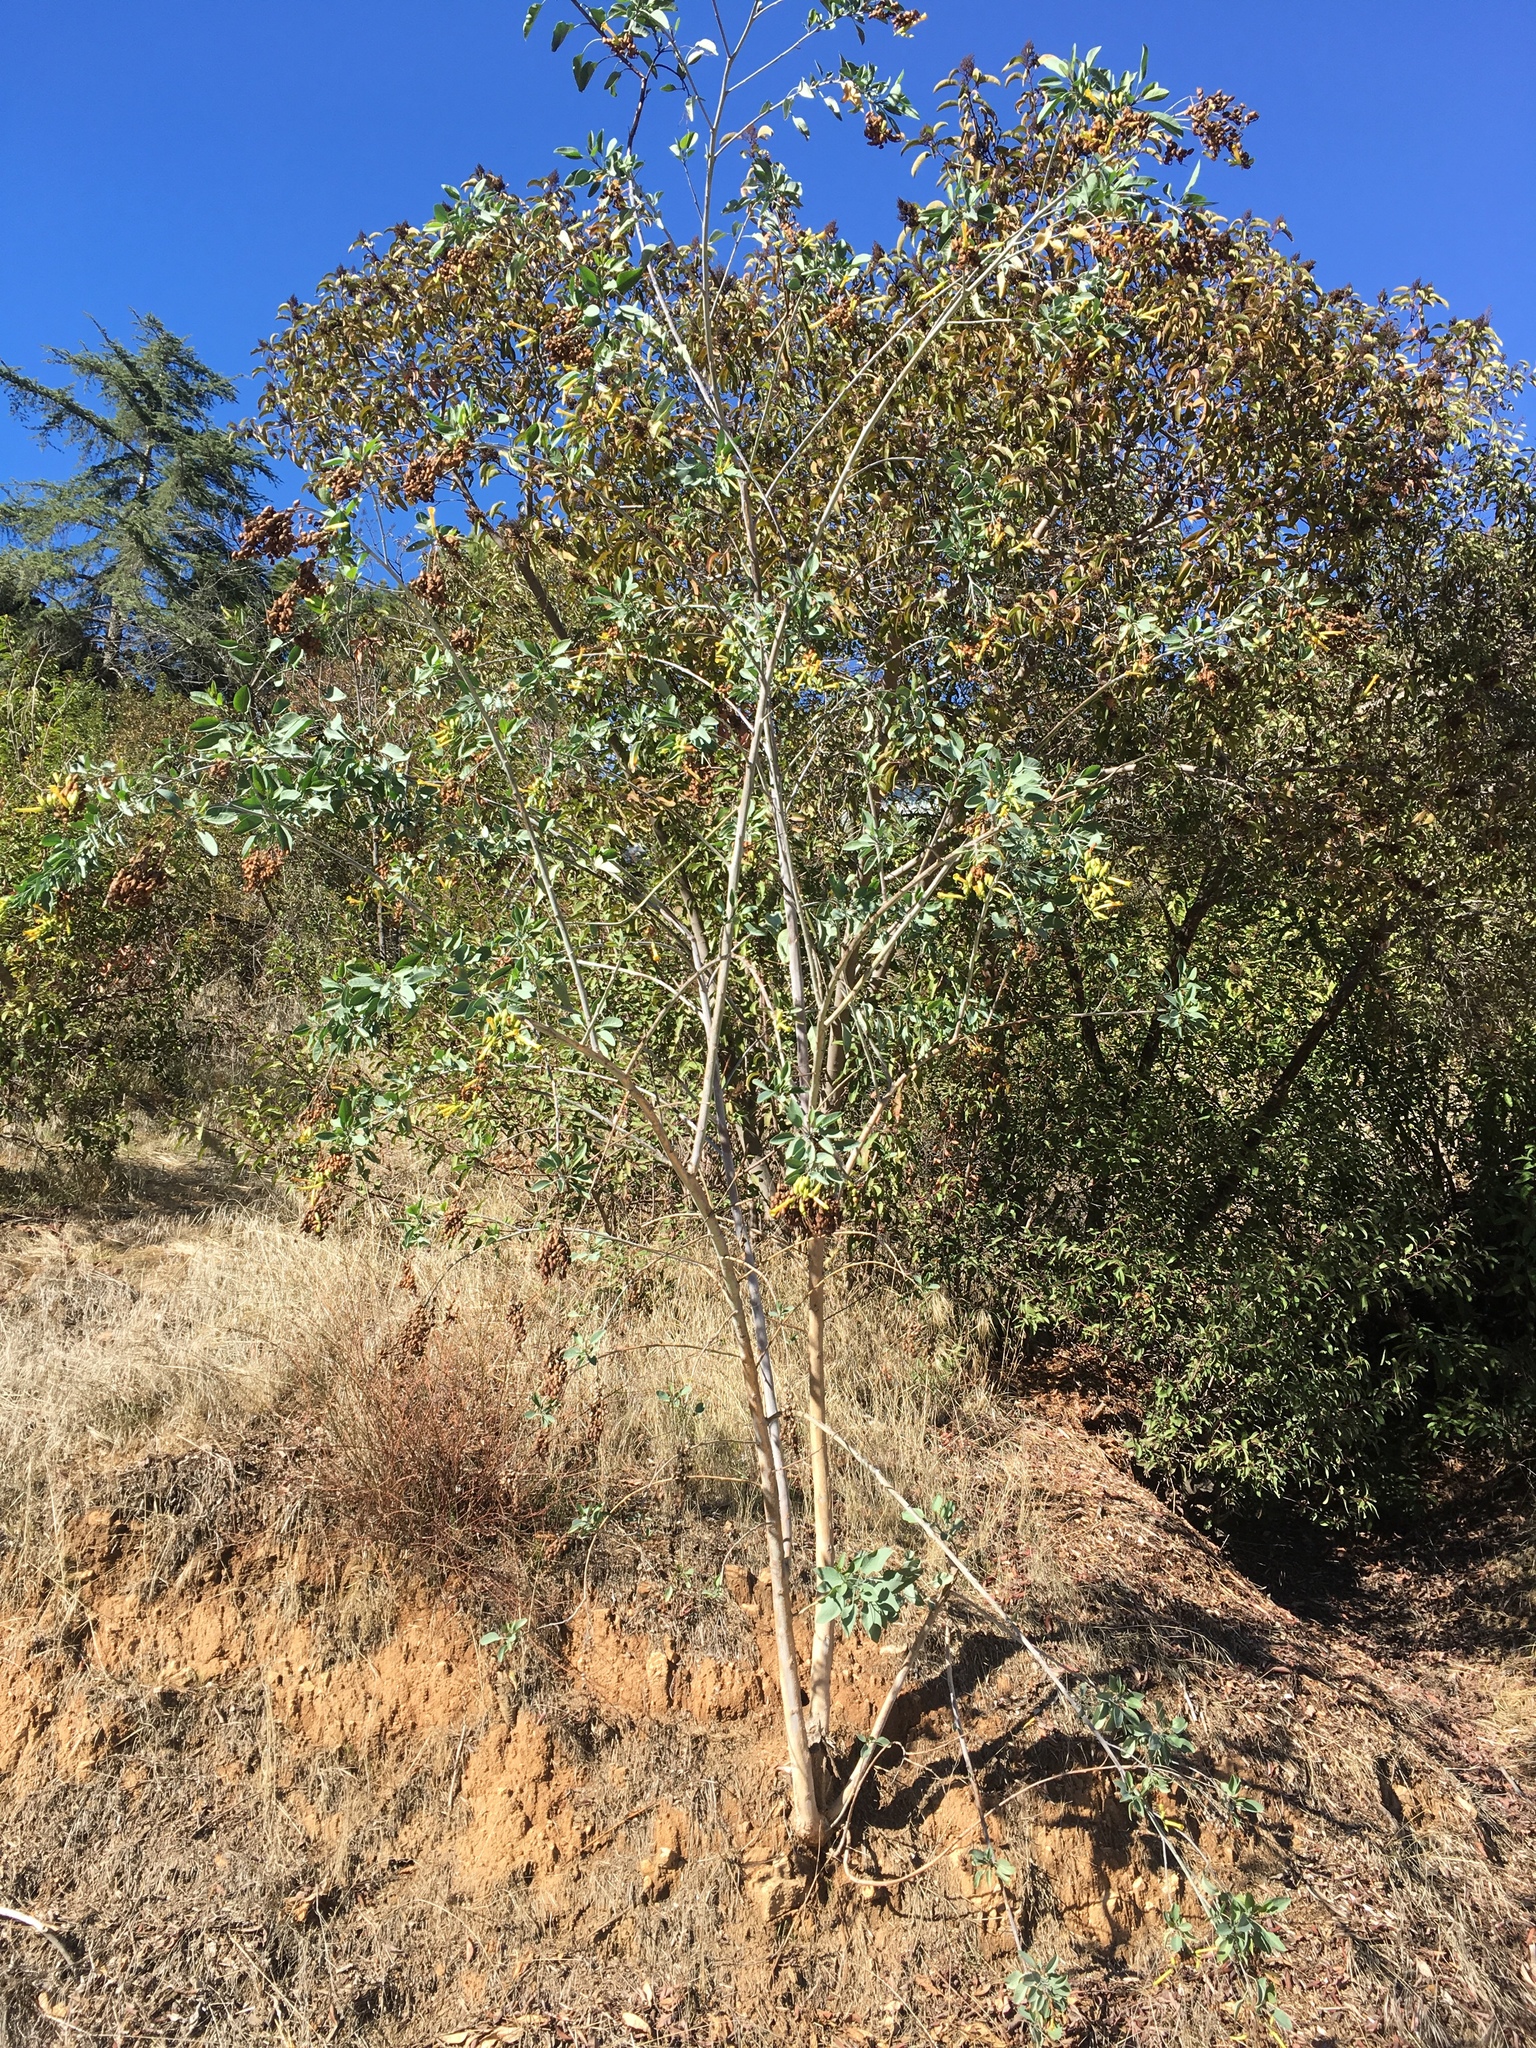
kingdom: Plantae
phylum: Tracheophyta
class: Magnoliopsida
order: Solanales
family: Solanaceae
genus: Nicotiana
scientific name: Nicotiana glauca
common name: Tree tobacco
